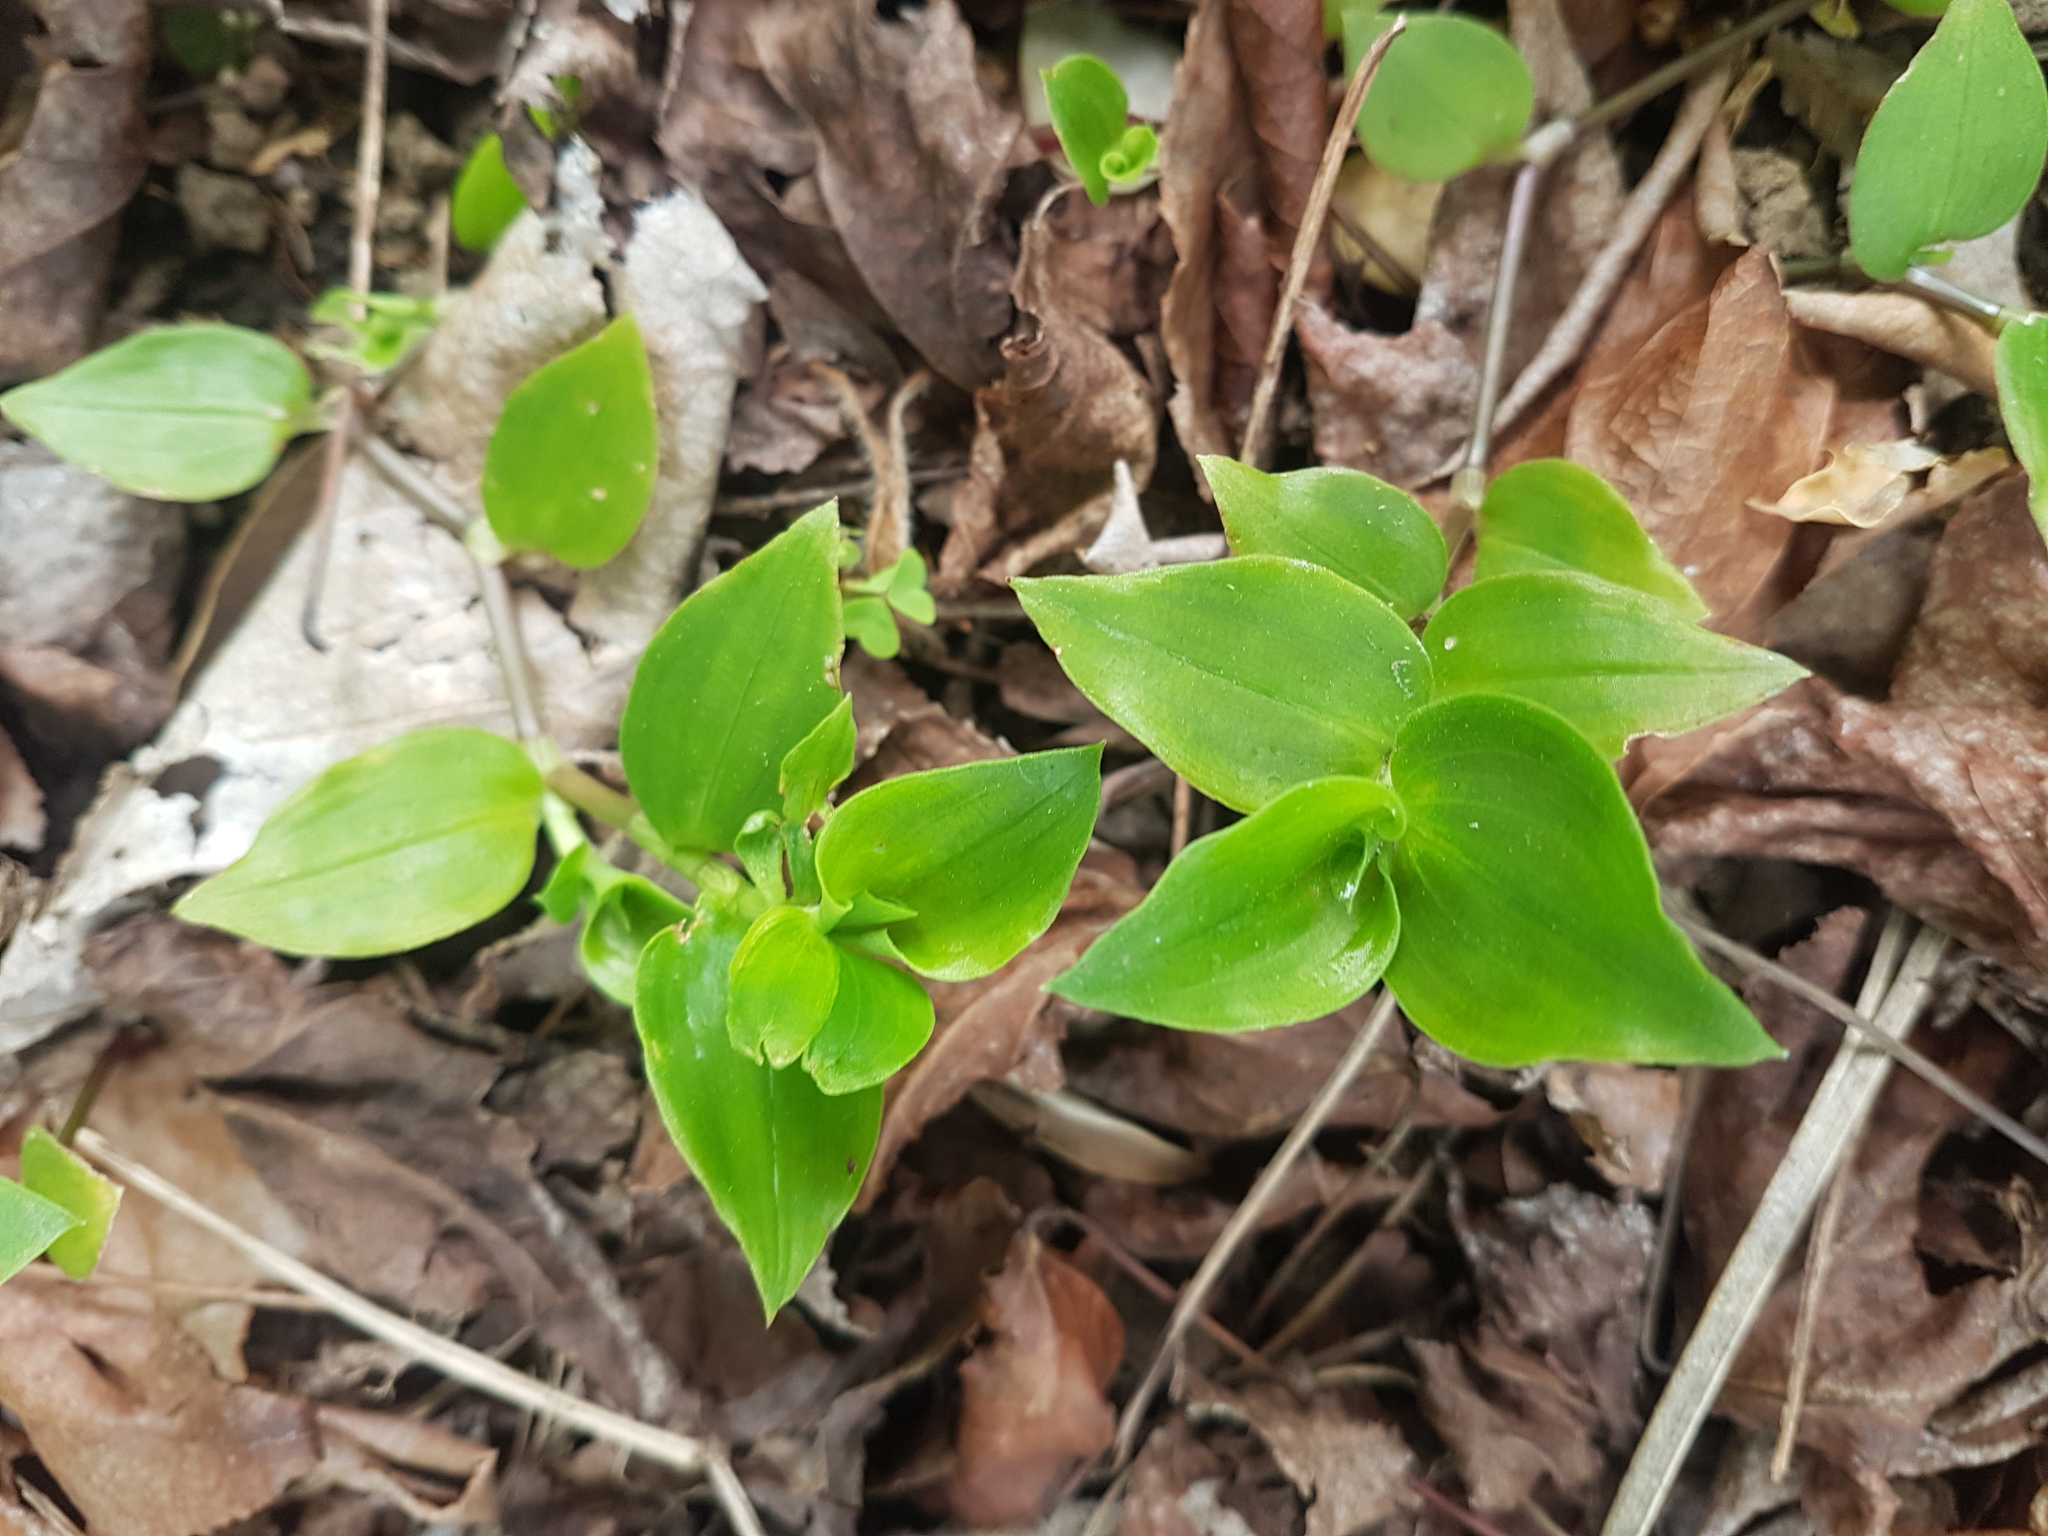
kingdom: Plantae
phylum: Tracheophyta
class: Liliopsida
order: Commelinales
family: Commelinaceae
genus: Tradescantia
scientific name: Tradescantia fluminensis
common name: Wandering-jew
